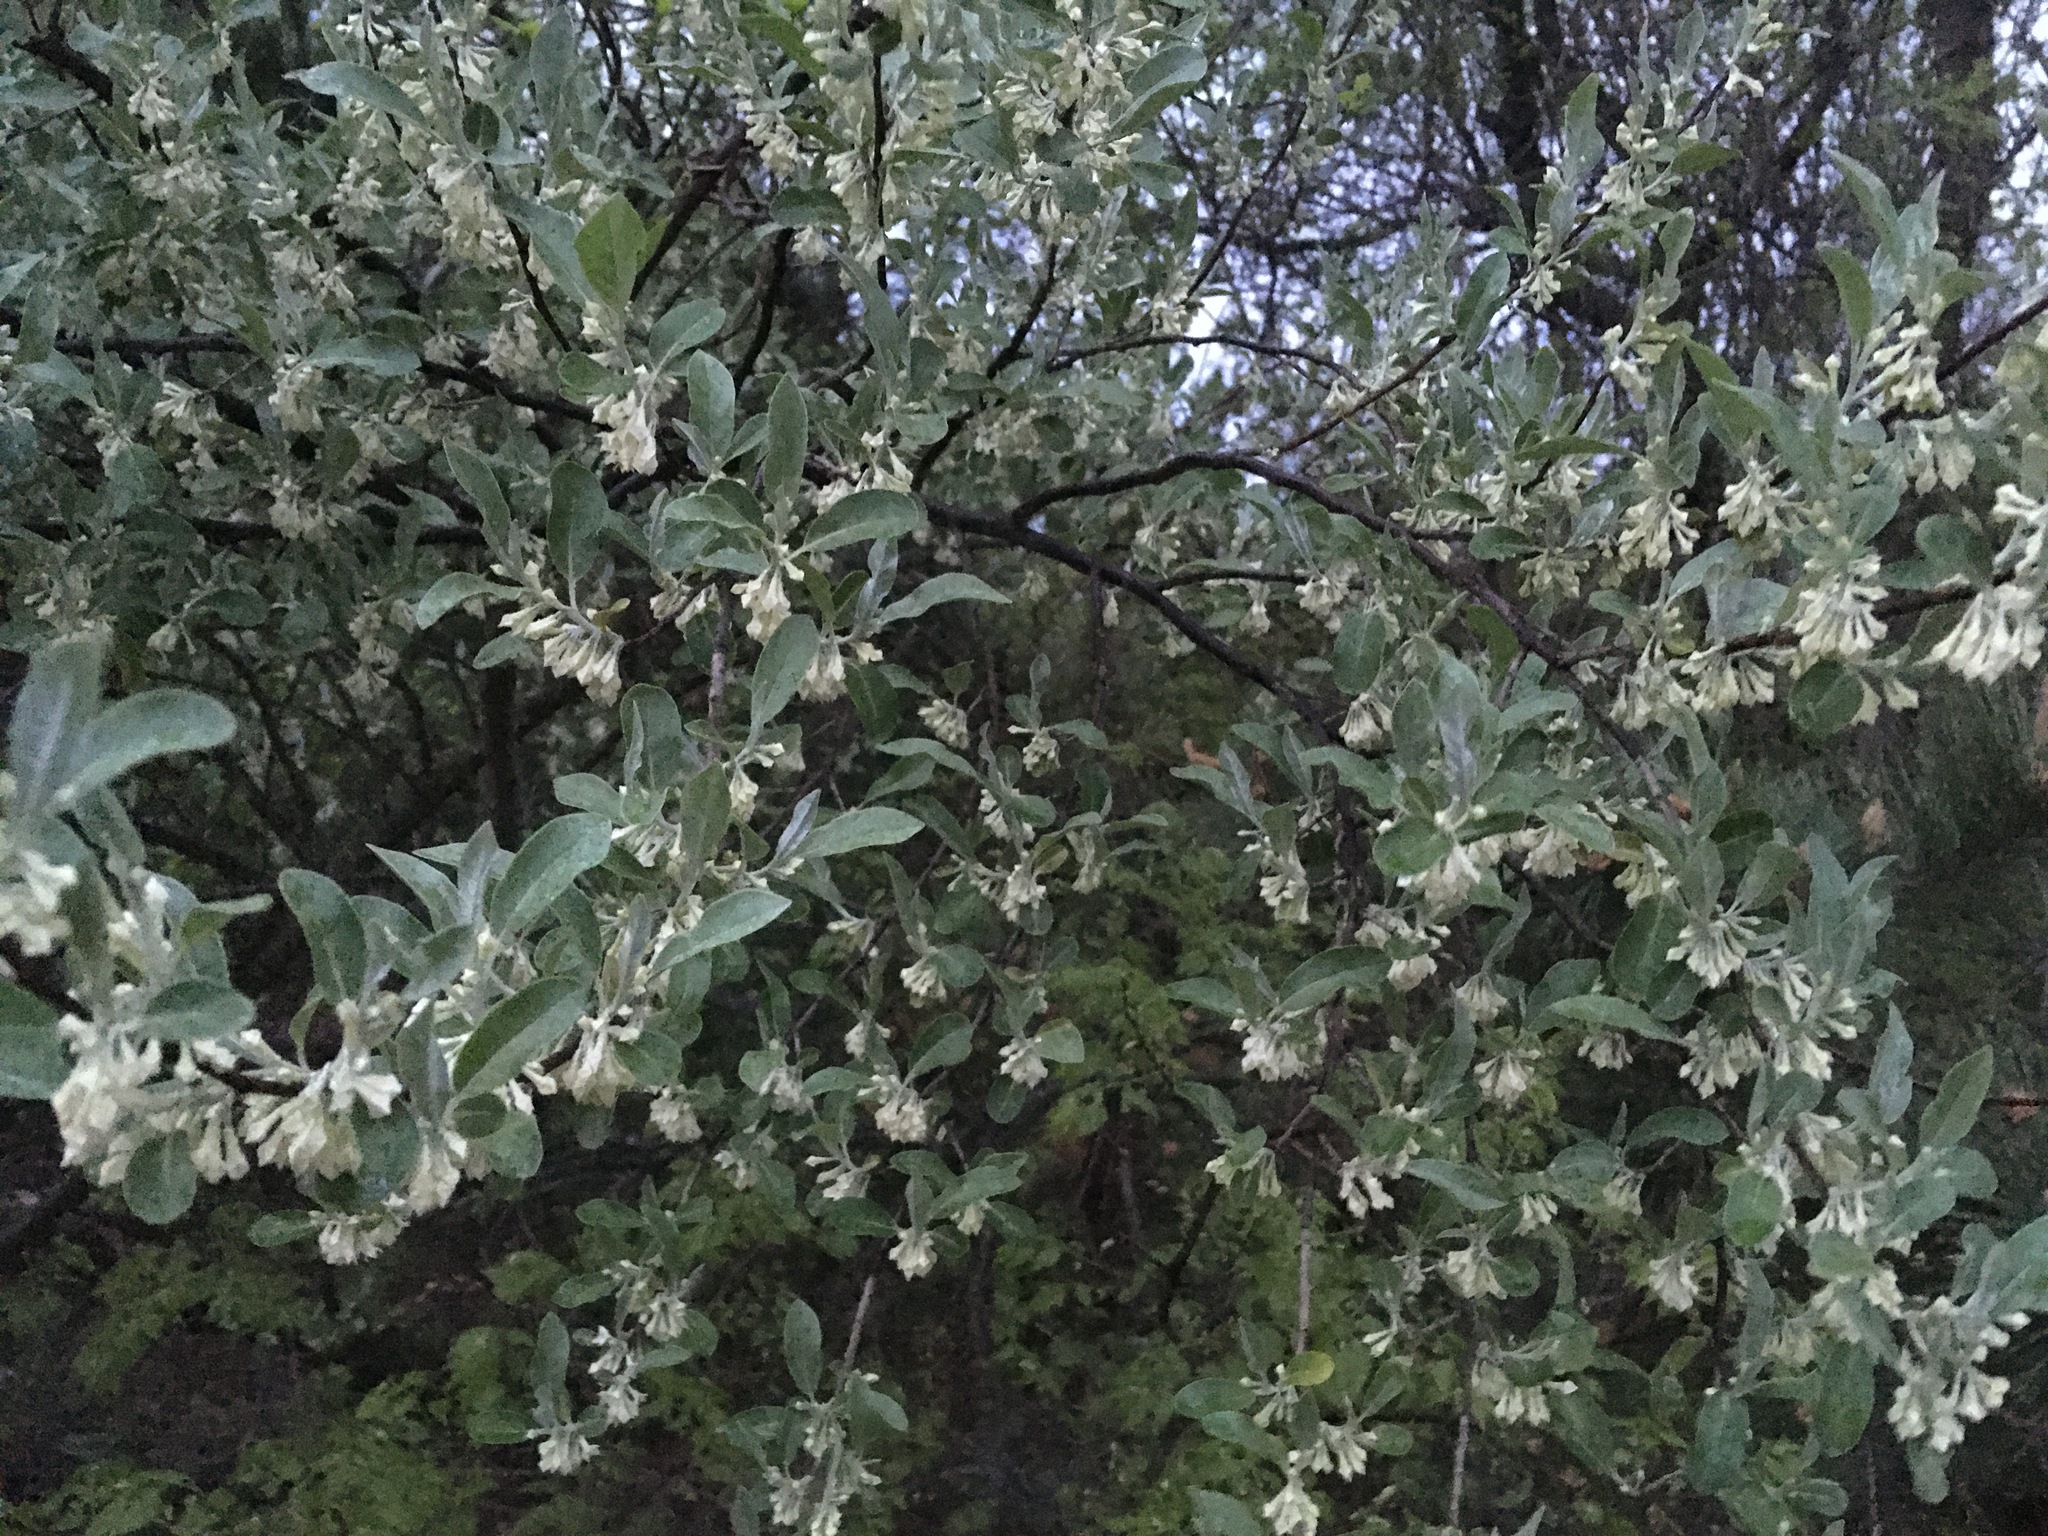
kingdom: Plantae
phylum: Tracheophyta
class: Magnoliopsida
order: Rosales
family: Elaeagnaceae
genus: Elaeagnus
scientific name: Elaeagnus umbellata
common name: Autumn olive
